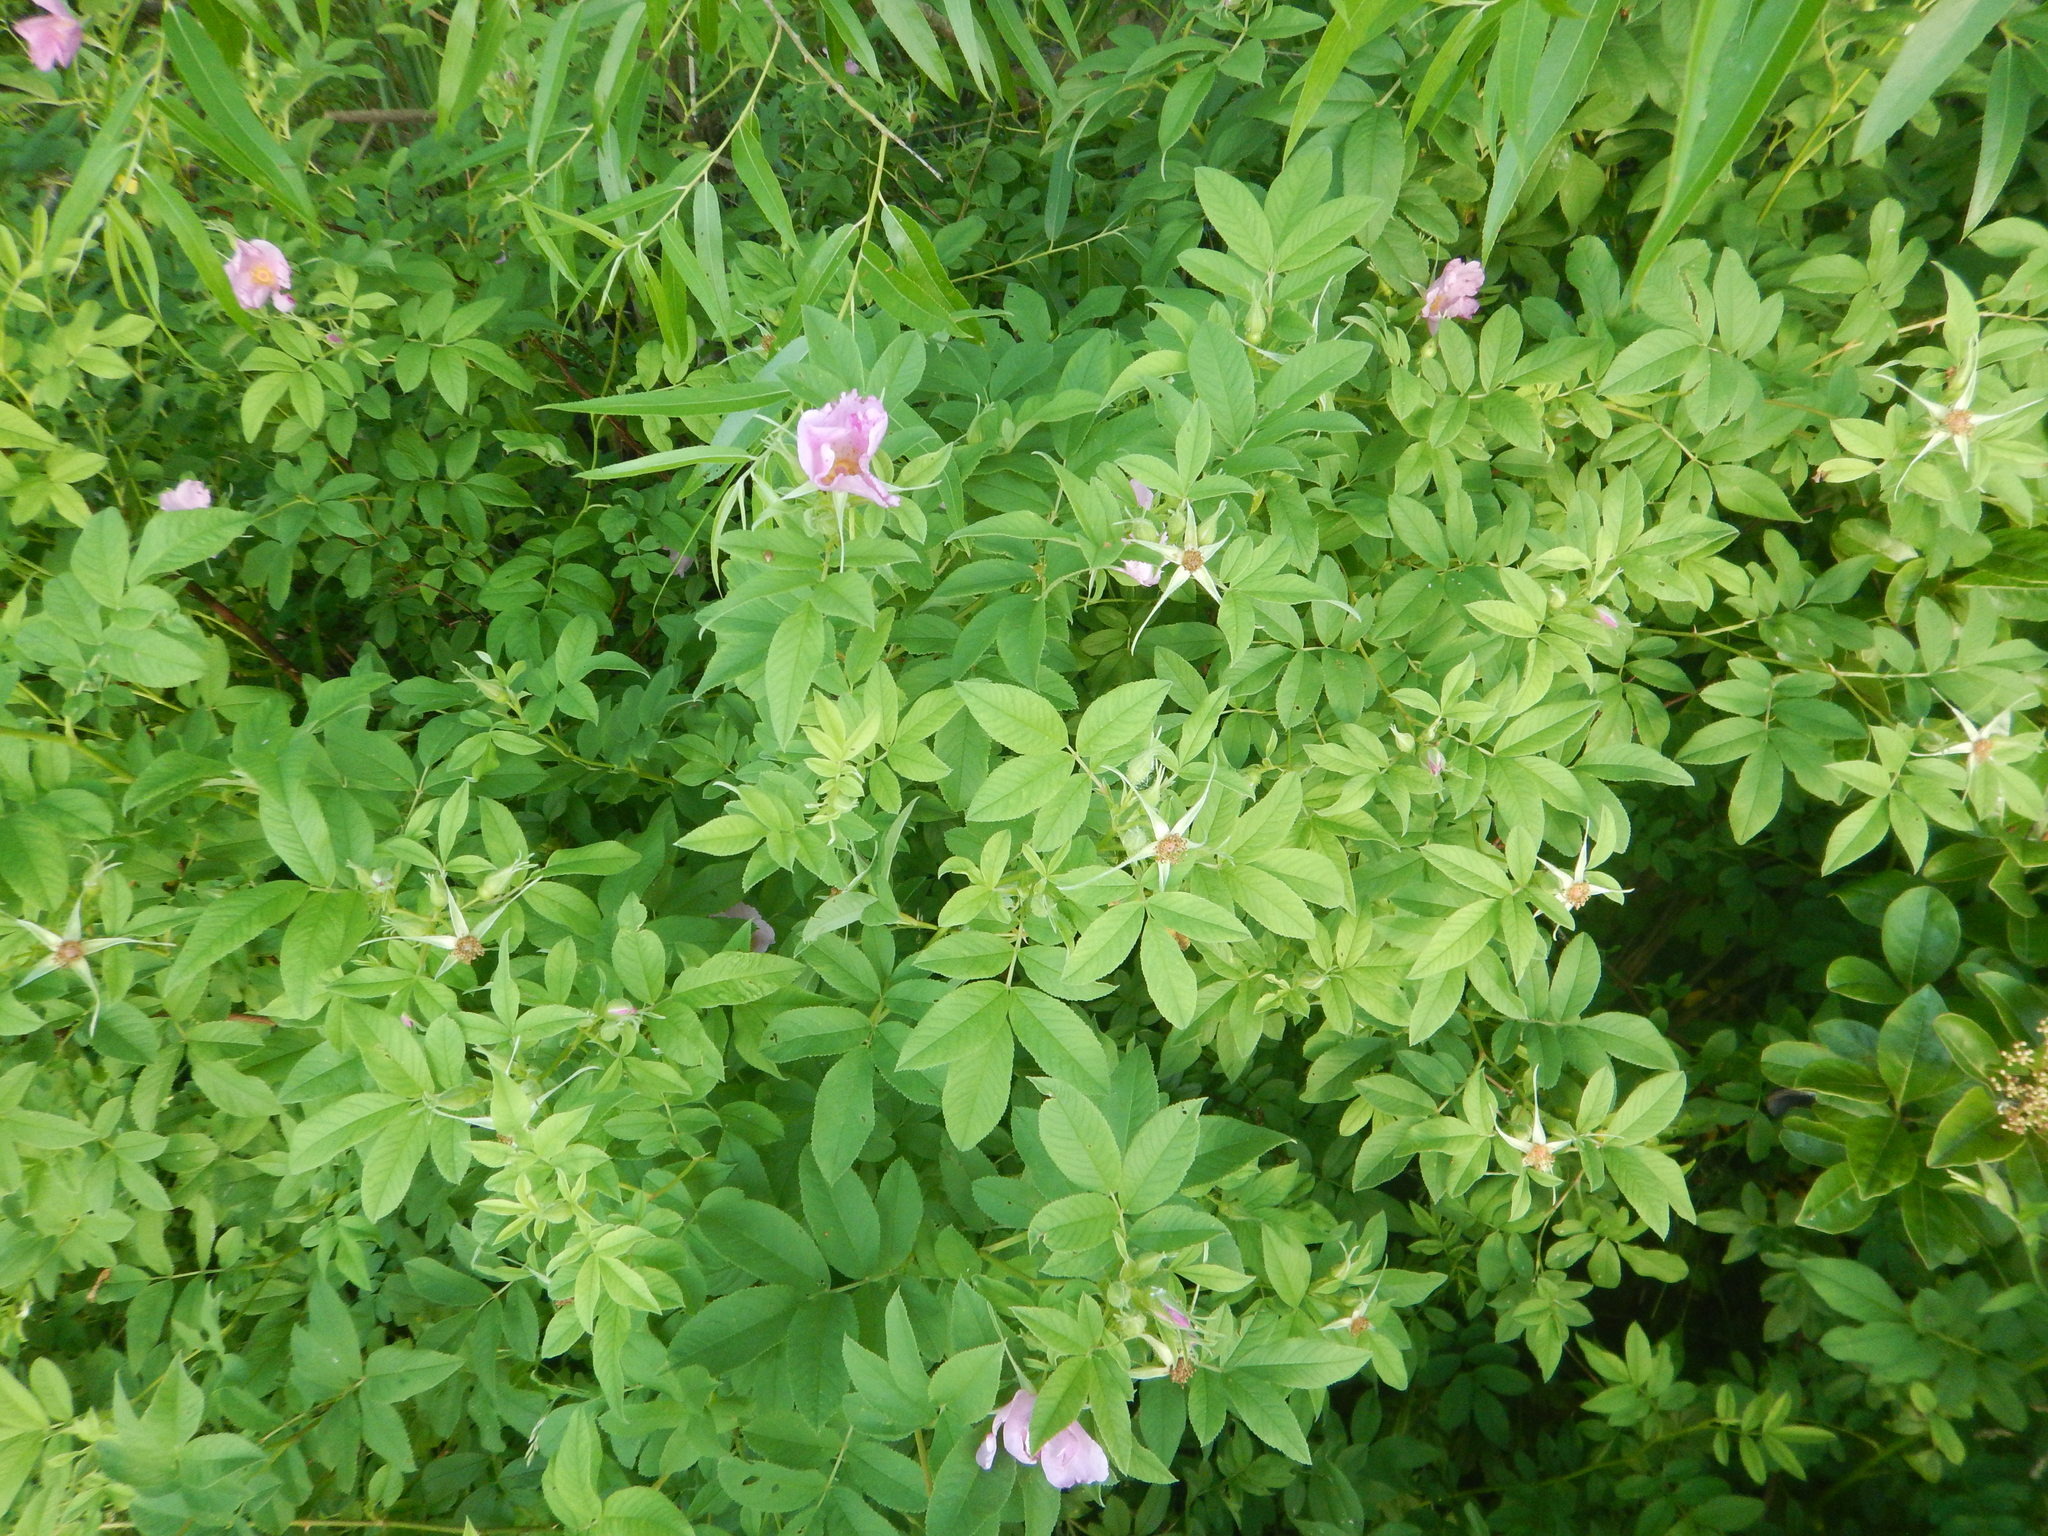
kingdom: Plantae
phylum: Tracheophyta
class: Magnoliopsida
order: Rosales
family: Rosaceae
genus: Rosa
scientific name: Rosa palustris
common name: Swamp rose
